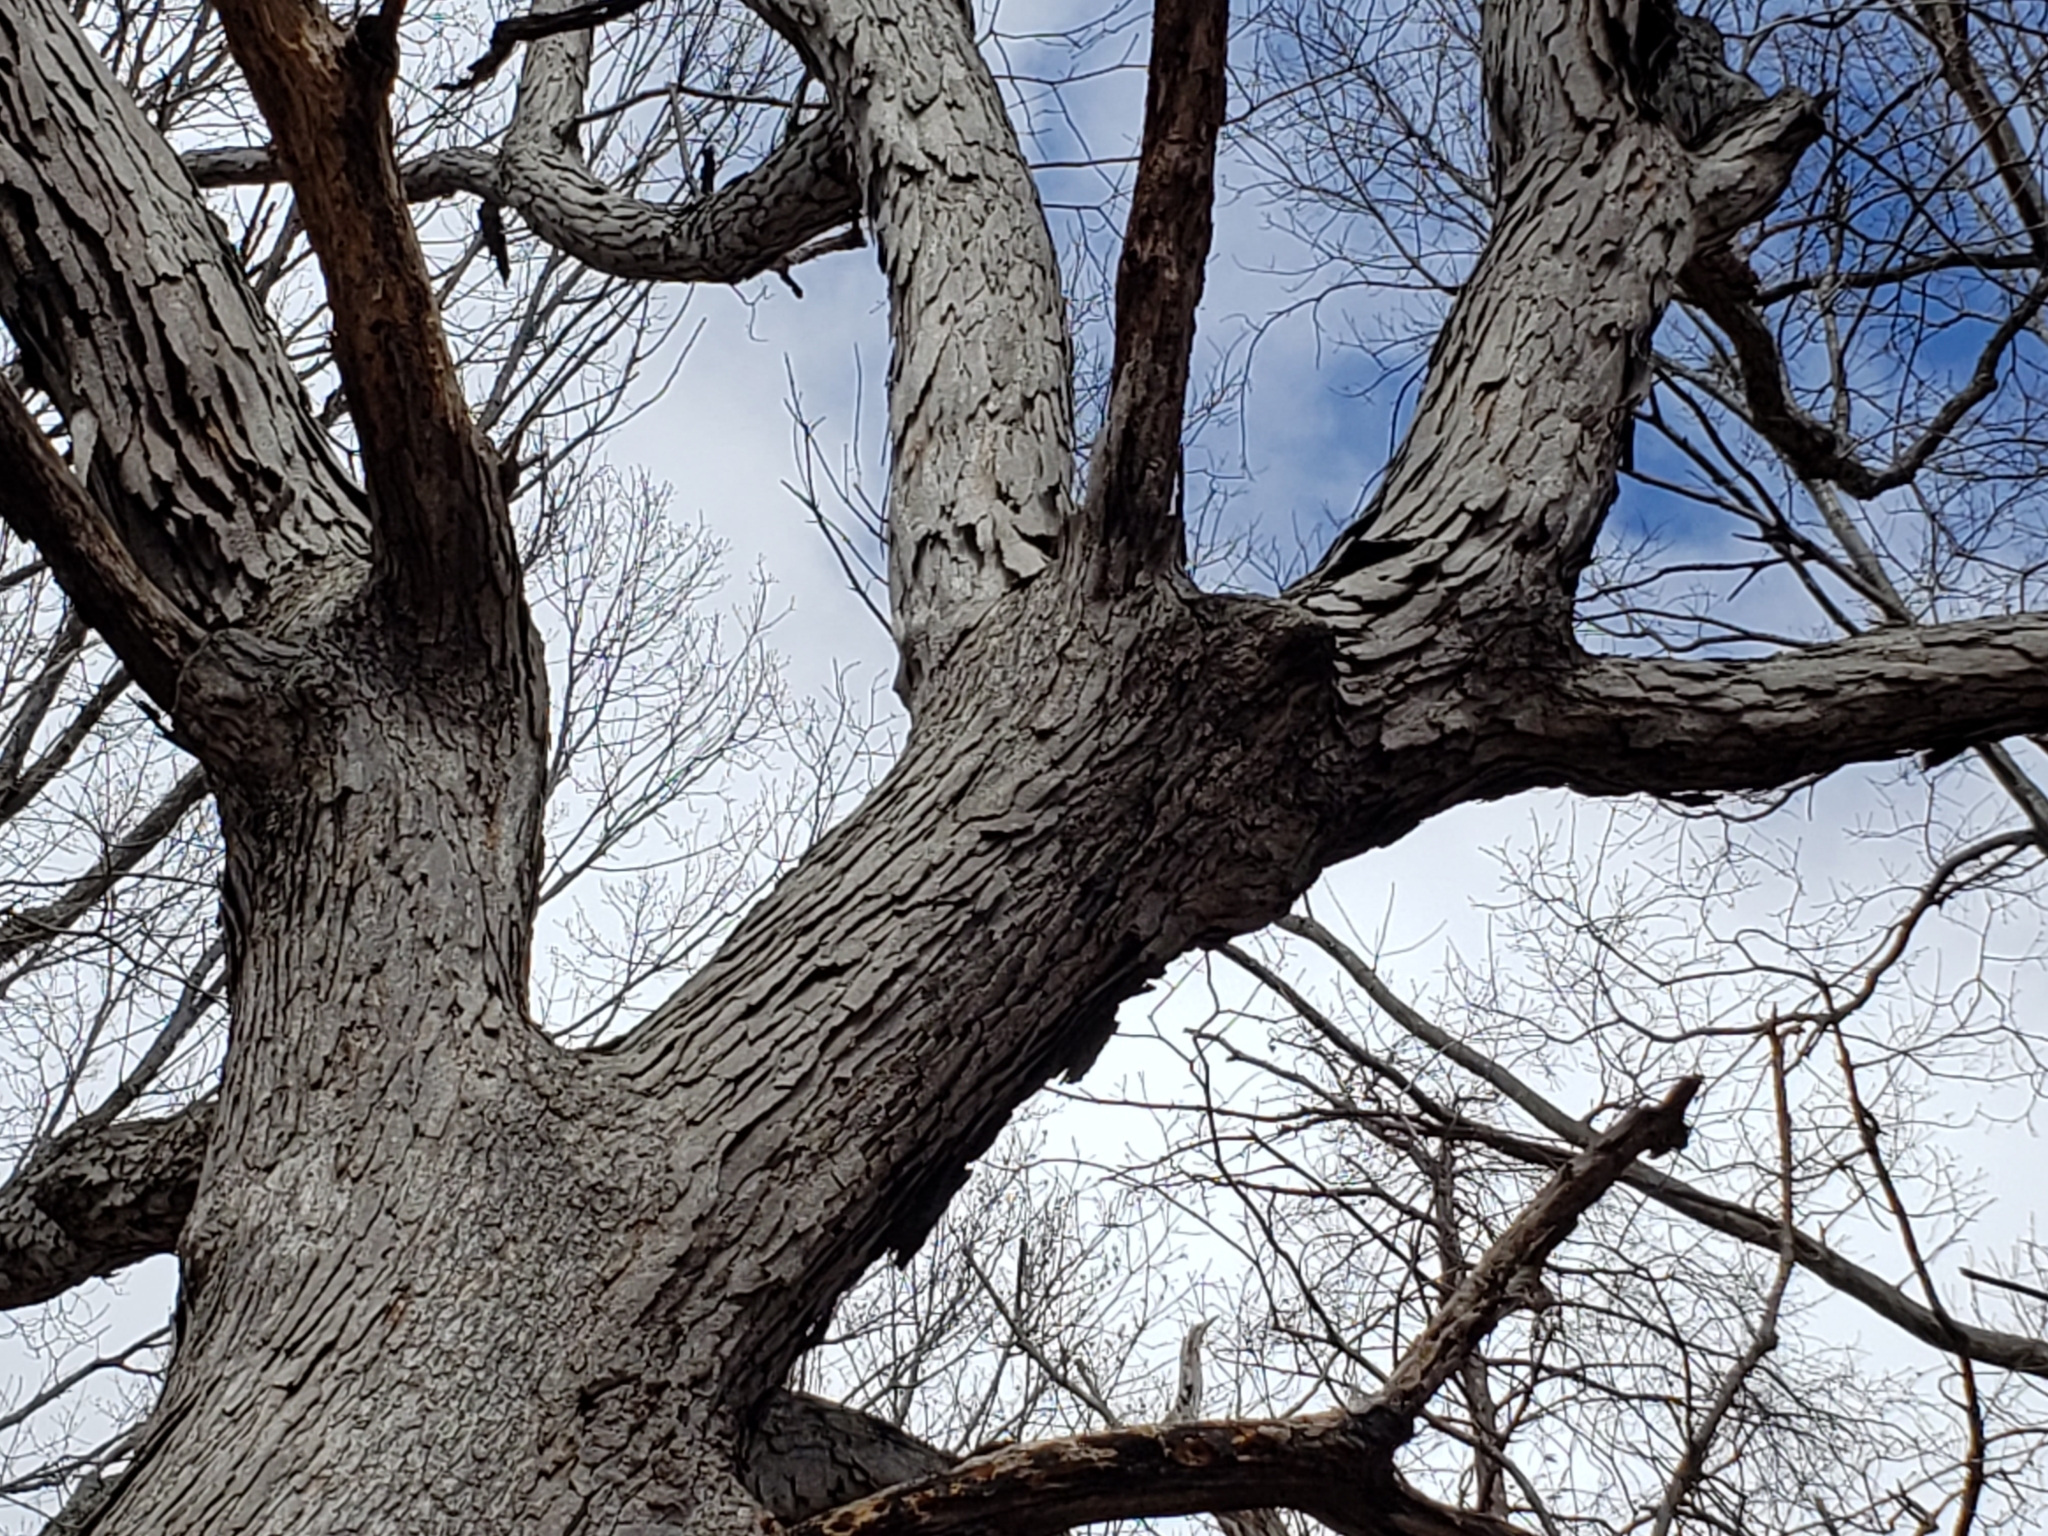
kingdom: Plantae
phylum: Tracheophyta
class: Magnoliopsida
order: Fagales
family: Fagaceae
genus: Quercus
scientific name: Quercus alba
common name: White oak
